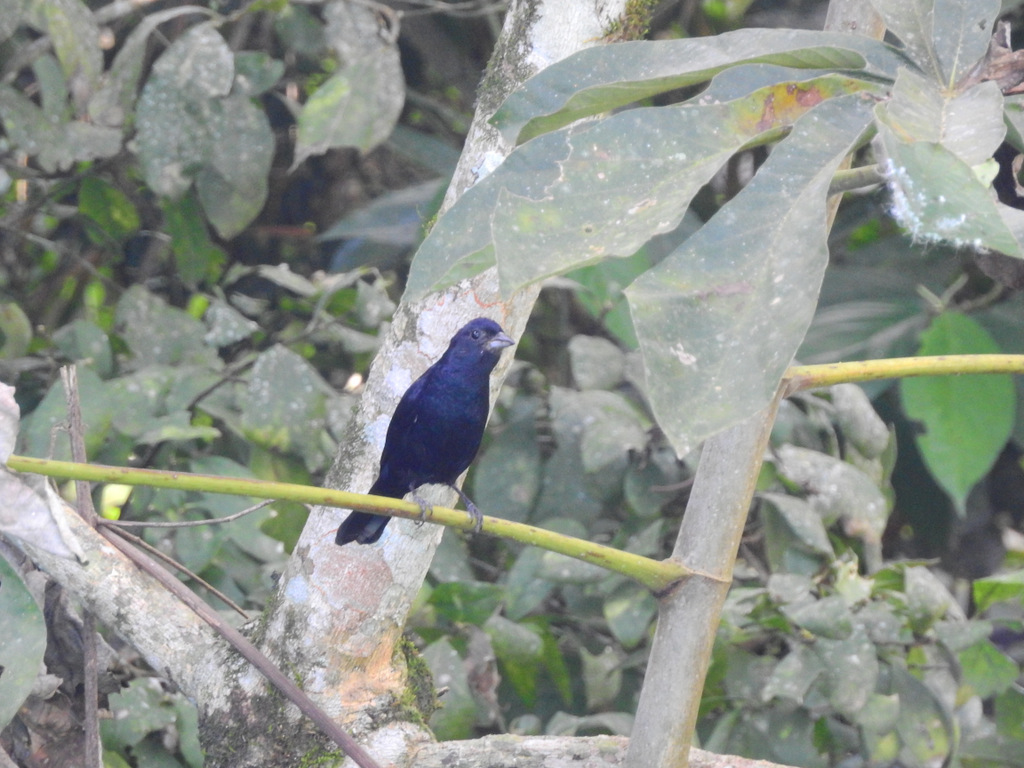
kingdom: Animalia
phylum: Chordata
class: Aves
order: Passeriformes
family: Thraupidae
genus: Volatinia
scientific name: Volatinia jacarina
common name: Blue-black grassquit
